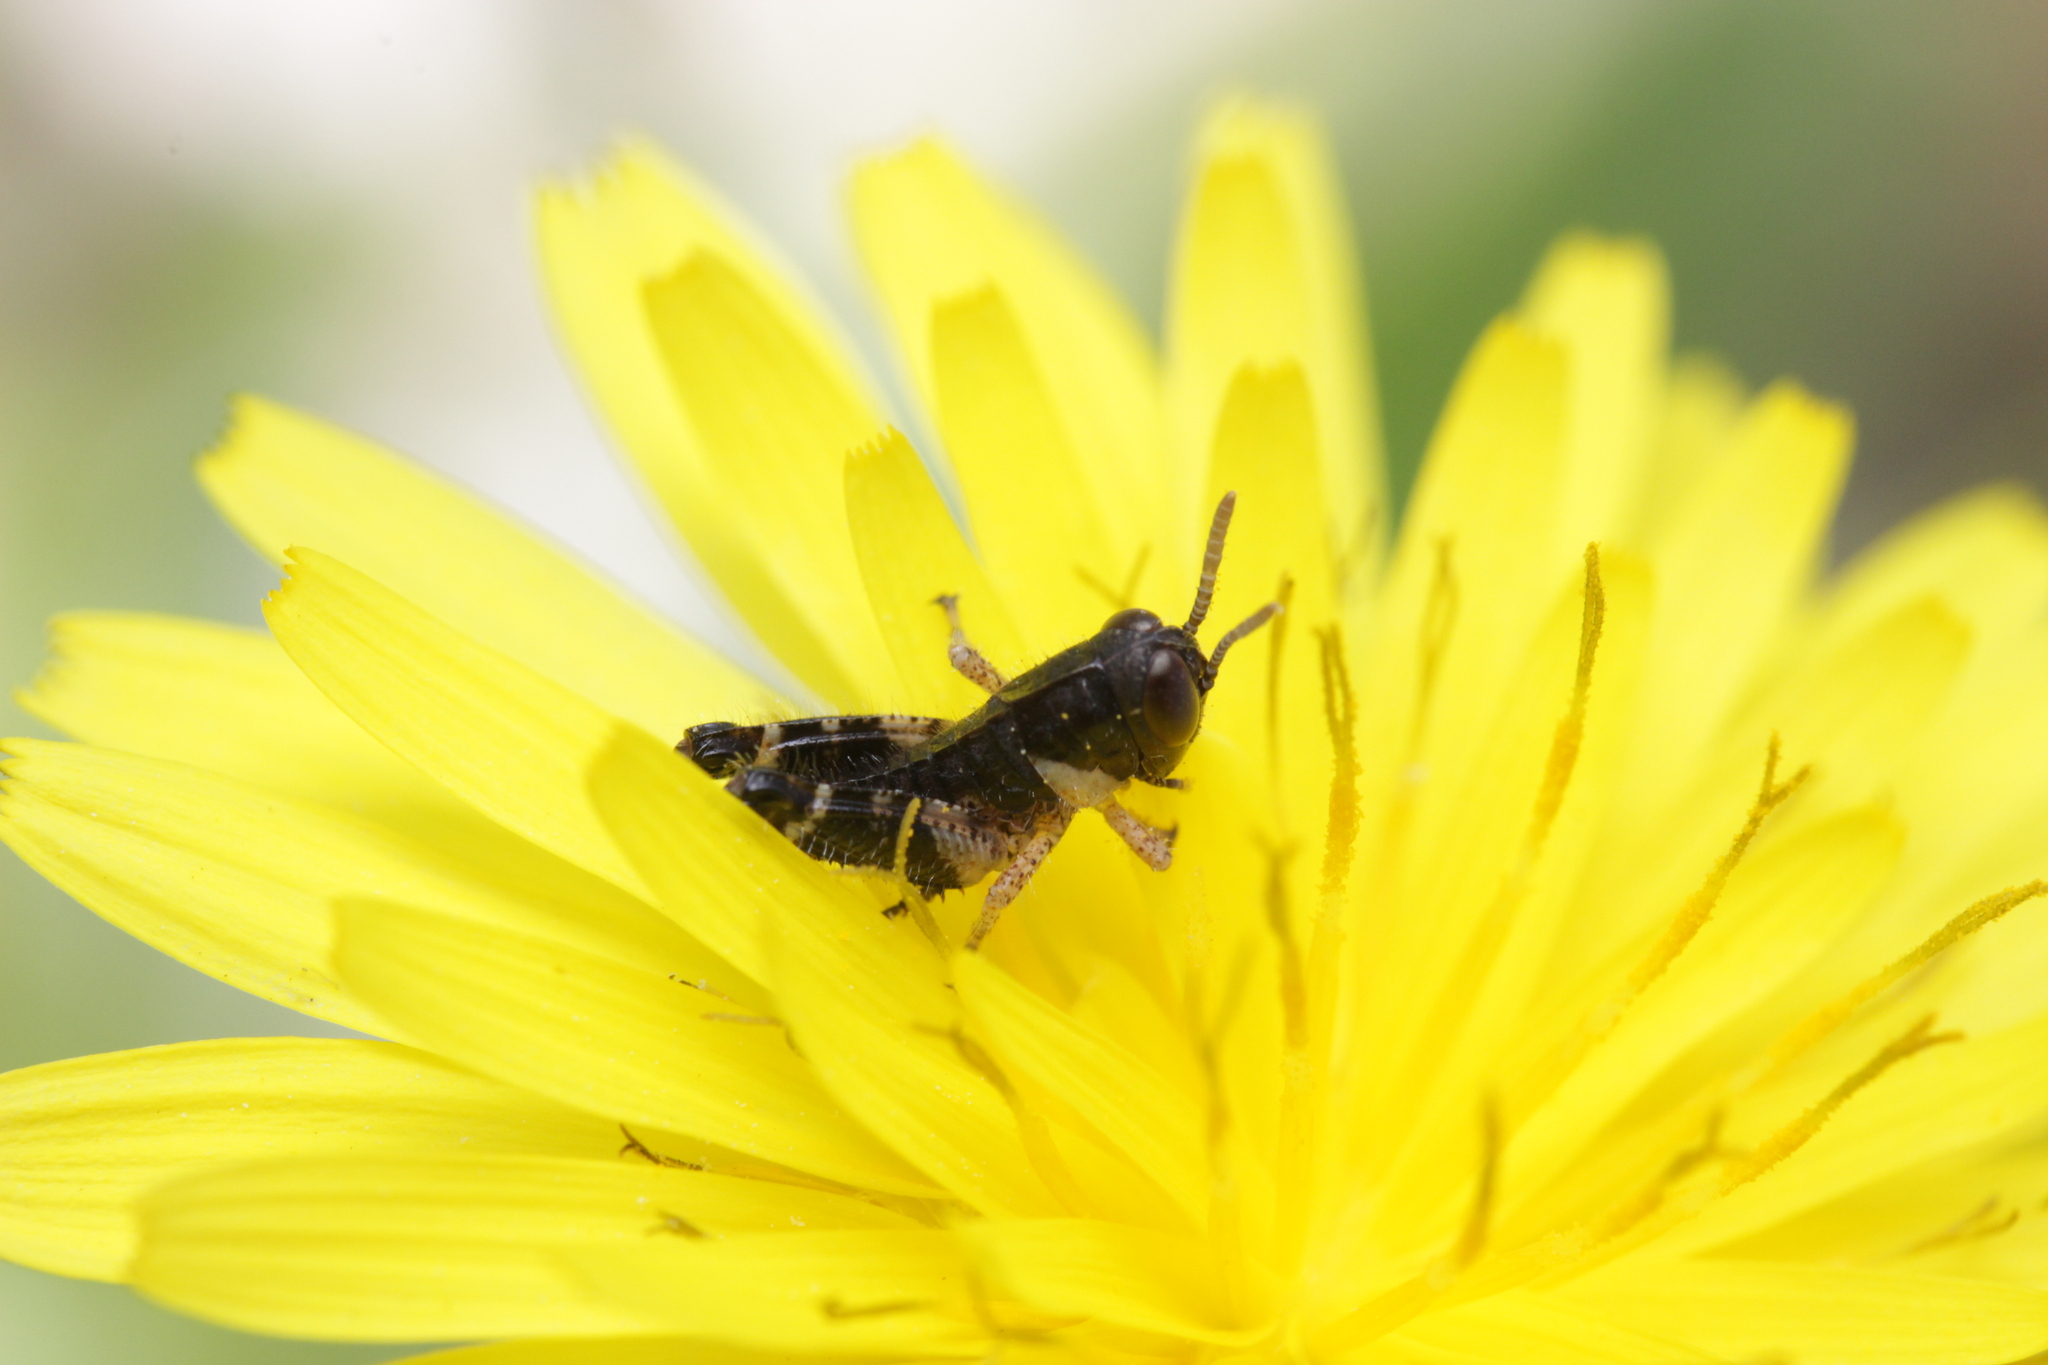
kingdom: Animalia
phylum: Arthropoda
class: Insecta
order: Orthoptera
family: Acrididae
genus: Calliptamus
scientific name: Calliptamus italicus
